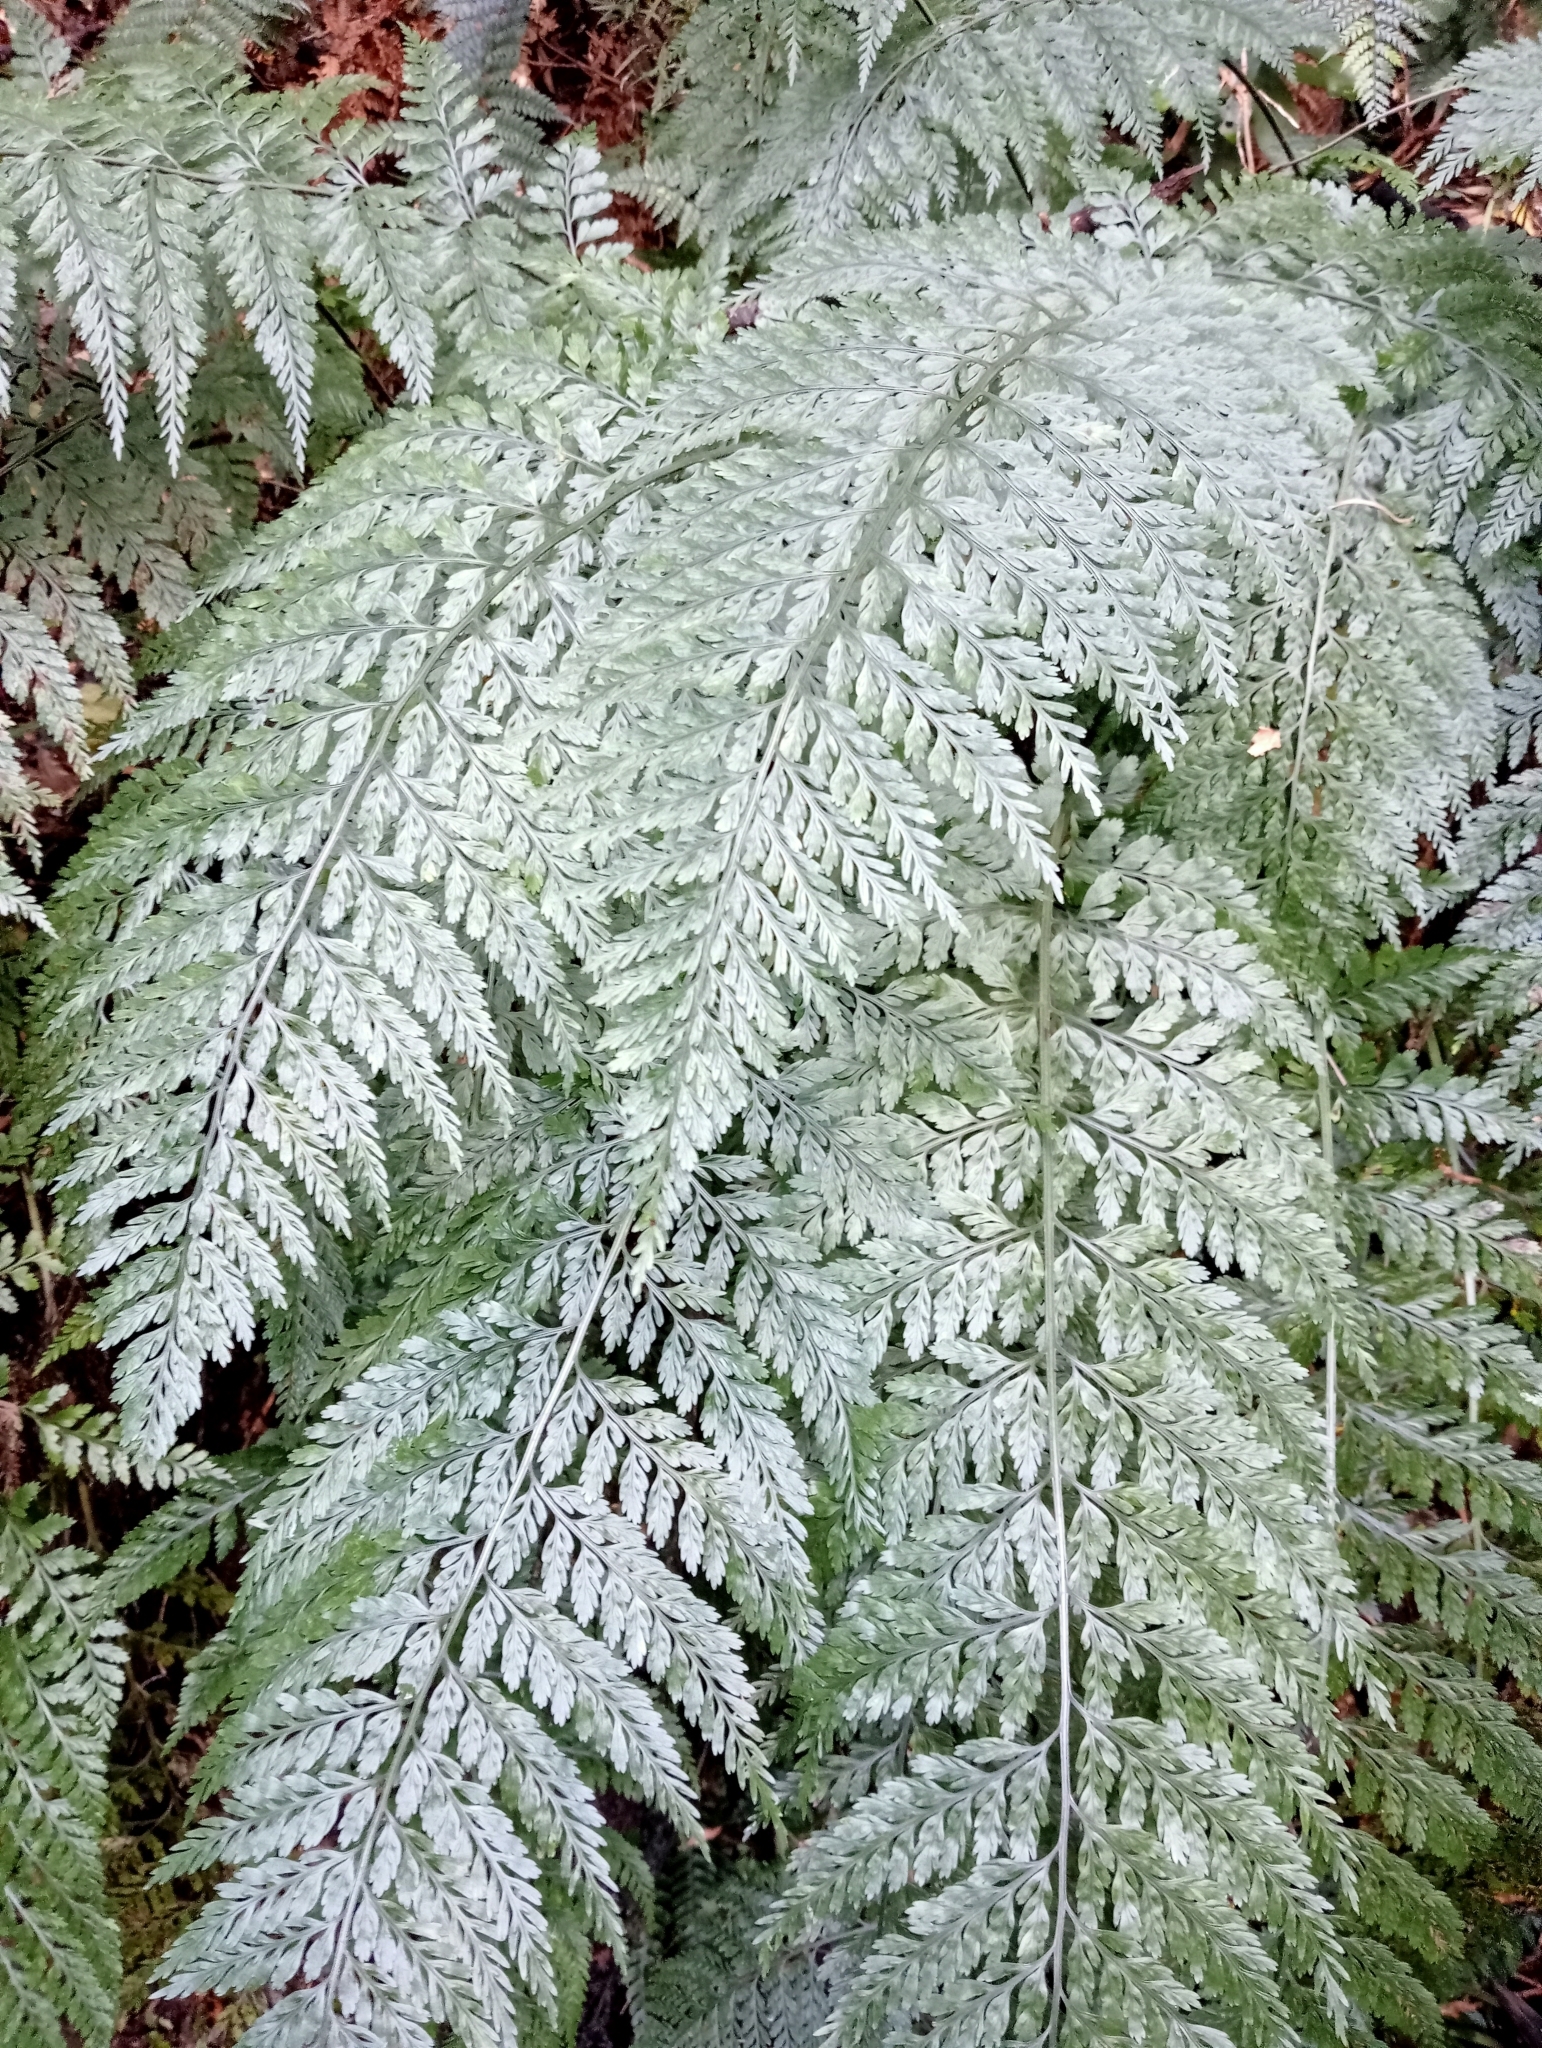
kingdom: Plantae
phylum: Tracheophyta
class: Polypodiopsida
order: Polypodiales
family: Aspleniaceae
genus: Asplenium
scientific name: Asplenium
